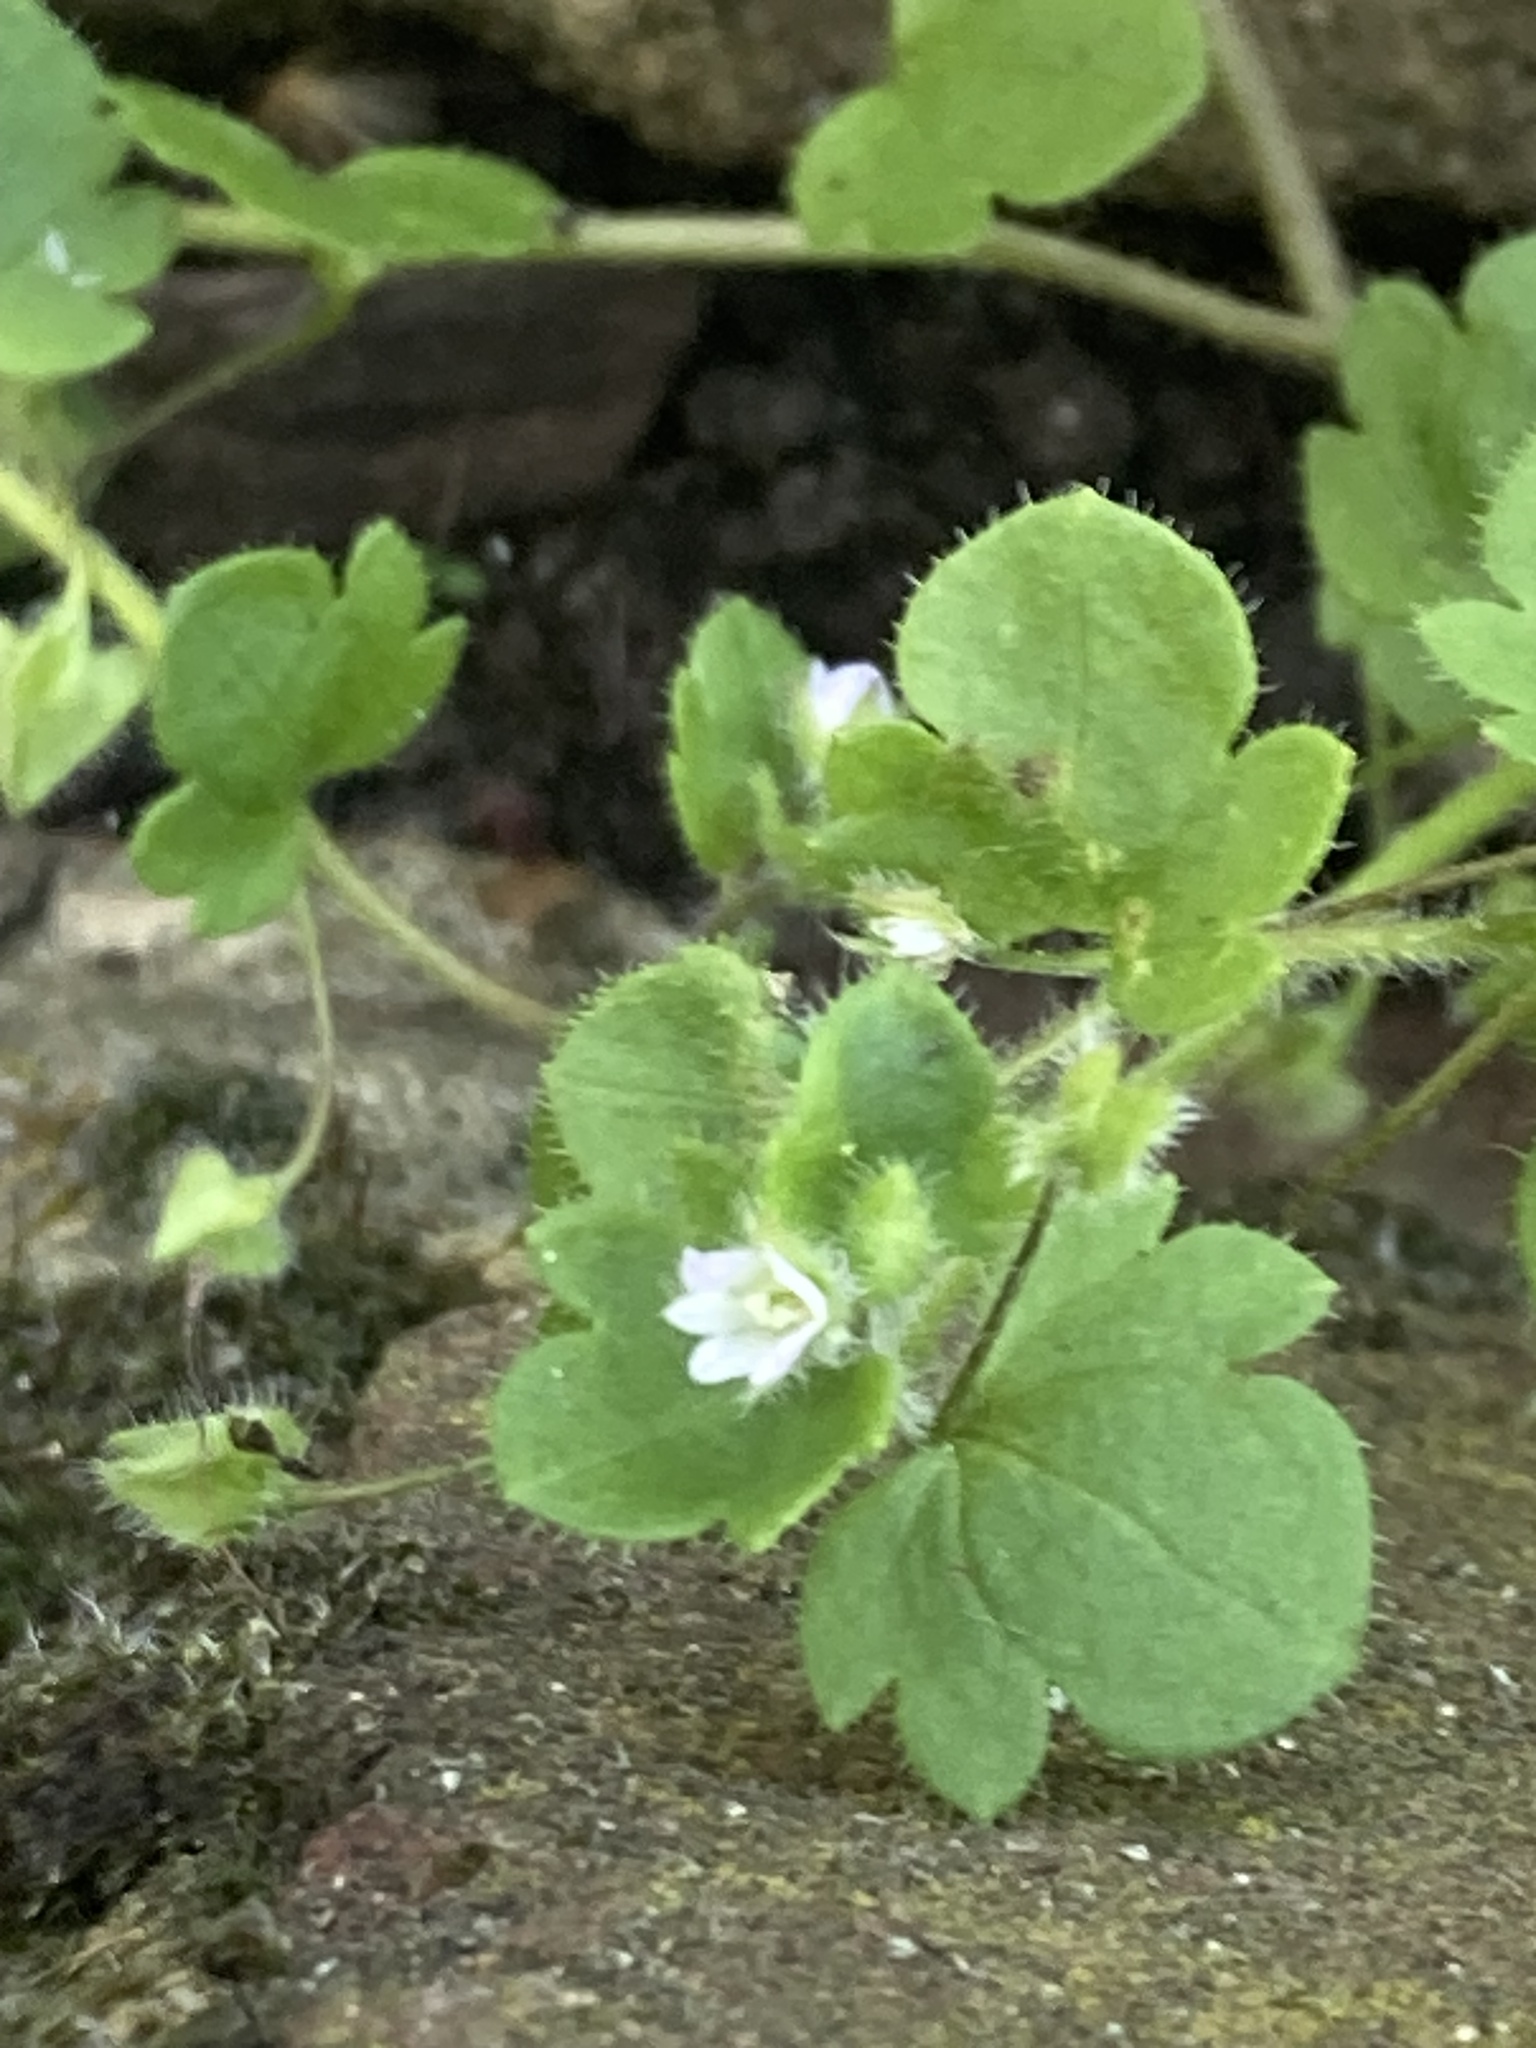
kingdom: Plantae
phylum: Tracheophyta
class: Magnoliopsida
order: Lamiales
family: Plantaginaceae
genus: Veronica
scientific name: Veronica sublobata
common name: False ivy-leaved speedwell
